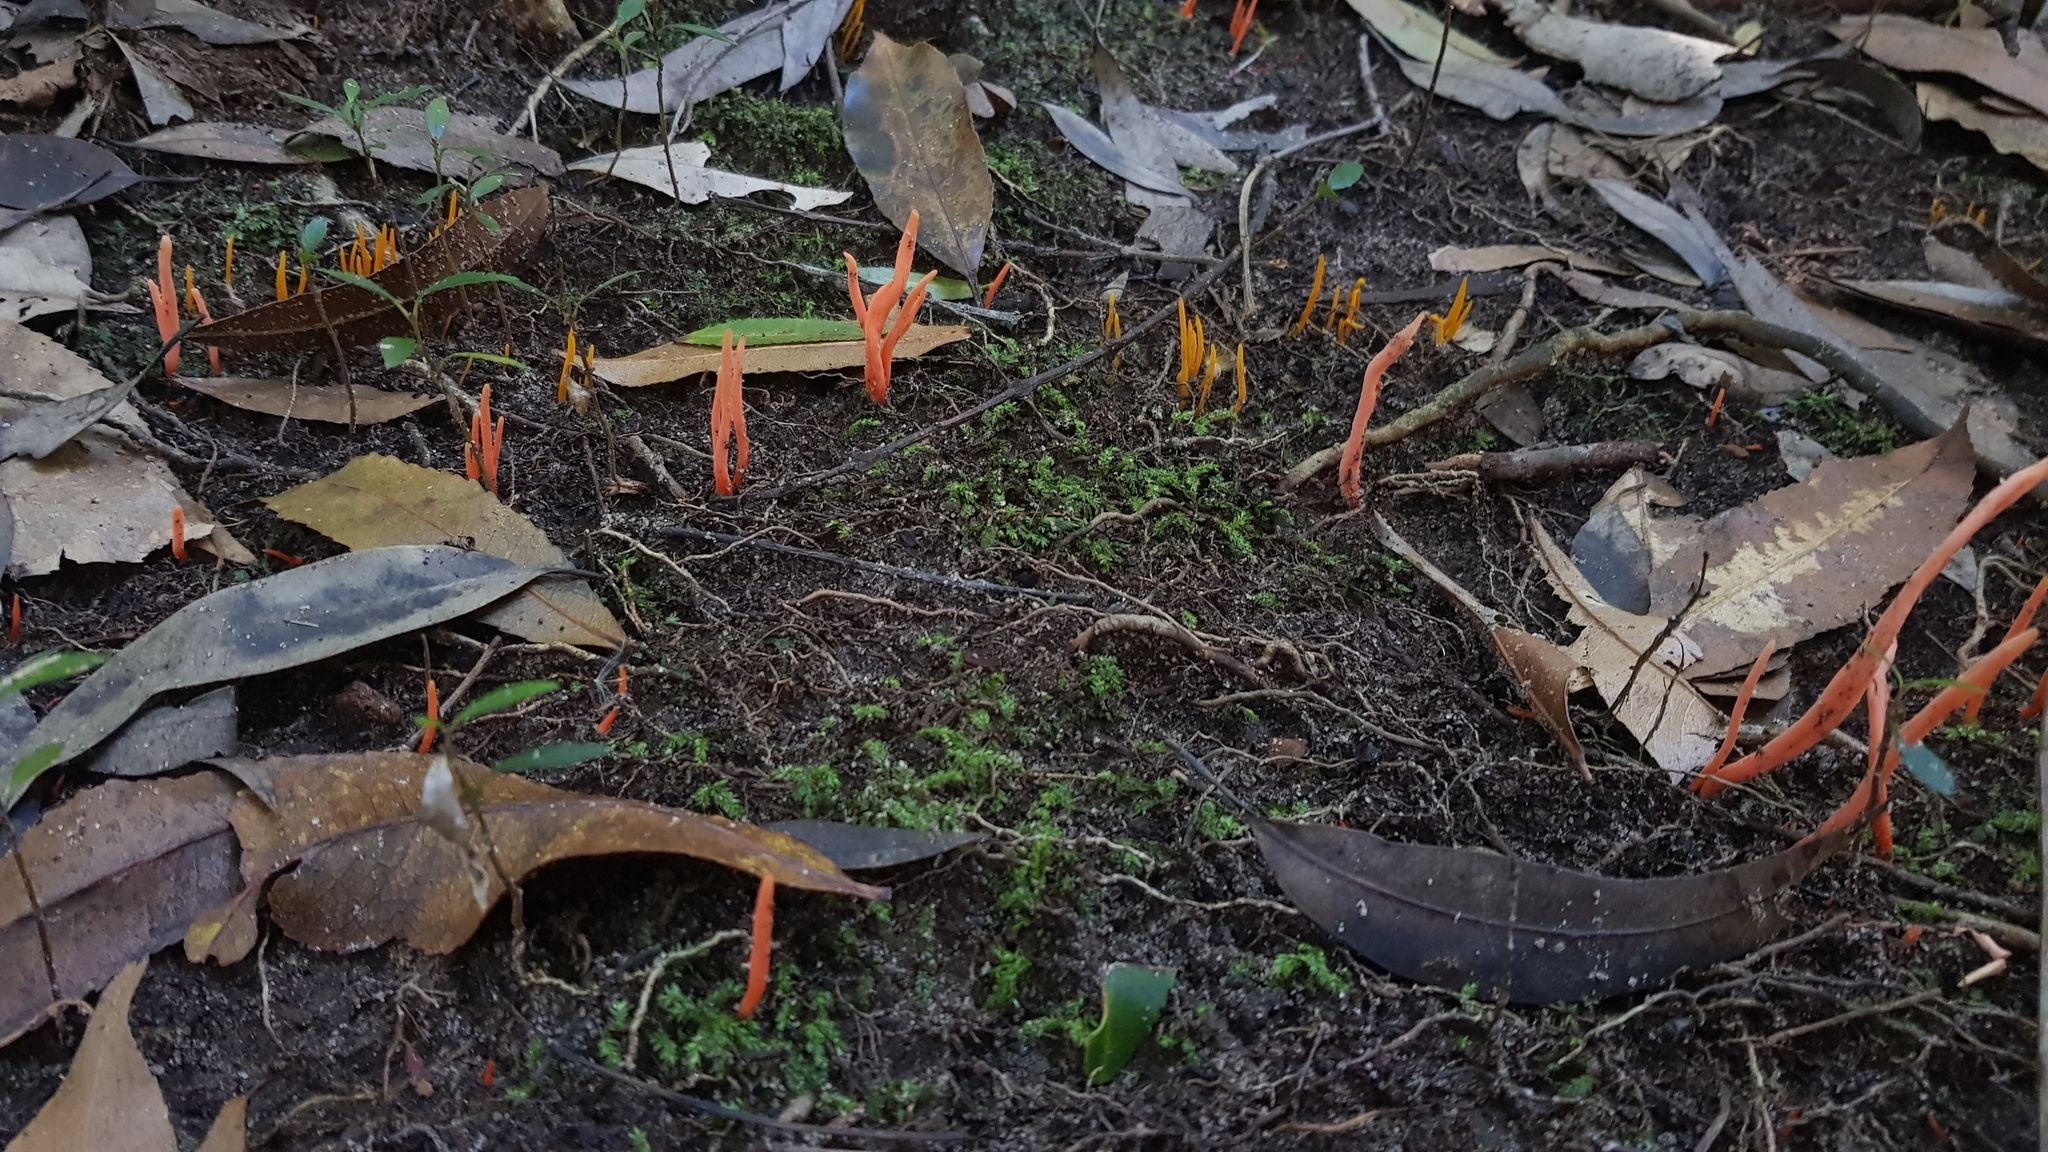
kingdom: Fungi
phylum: Basidiomycota
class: Agaricomycetes
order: Agaricales
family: Clavariaceae
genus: Clavulinopsis
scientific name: Clavulinopsis sulcata
